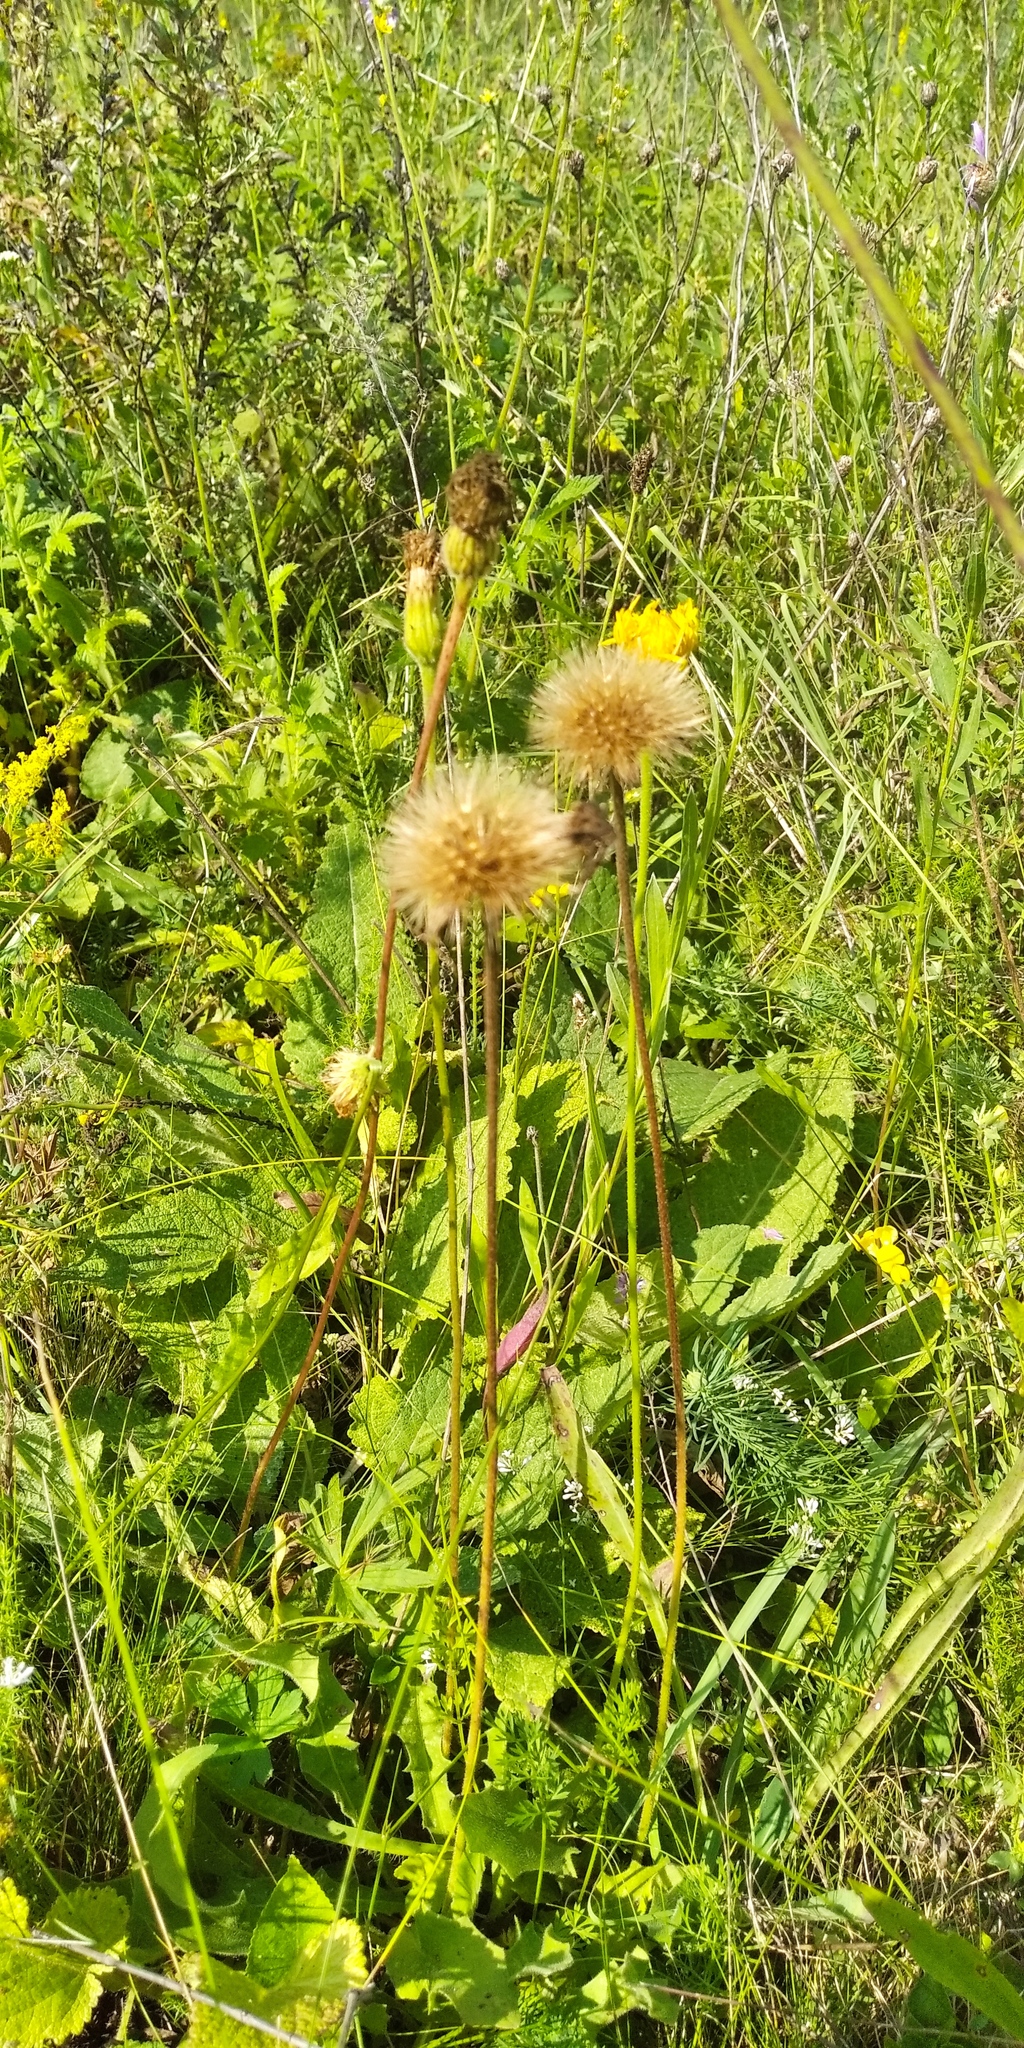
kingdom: Plantae
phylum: Tracheophyta
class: Magnoliopsida
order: Asterales
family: Asteraceae
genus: Leontodon
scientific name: Leontodon hispidus
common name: Rough hawkbit
